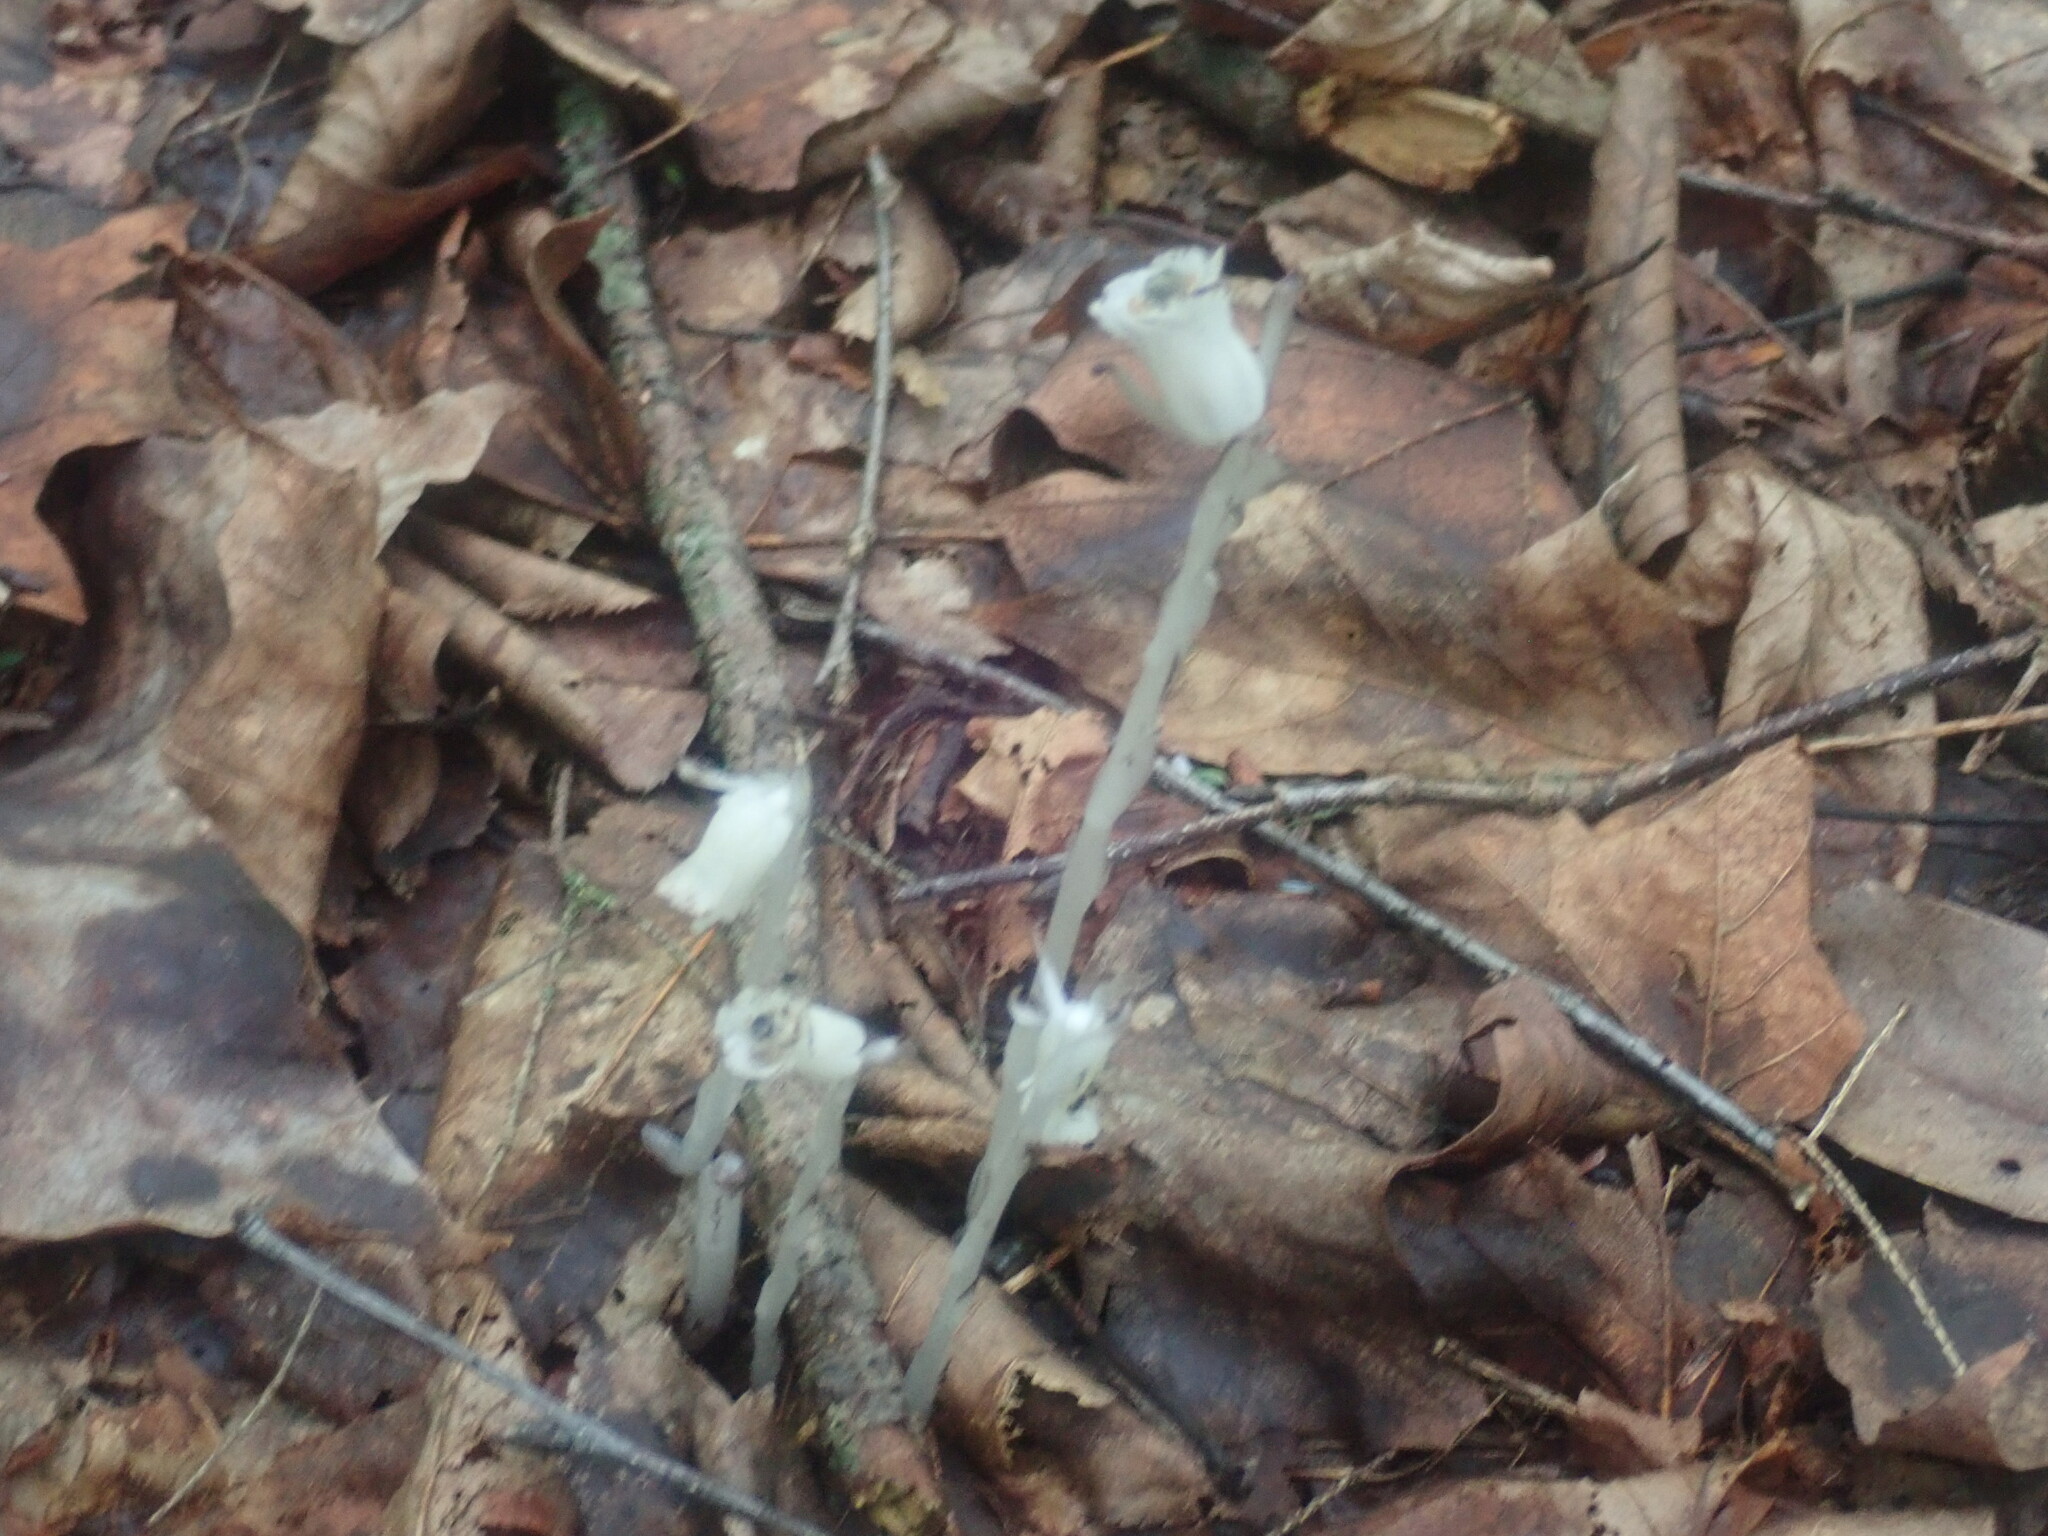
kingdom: Plantae
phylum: Tracheophyta
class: Magnoliopsida
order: Ericales
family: Ericaceae
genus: Monotropa
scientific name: Monotropa uniflora
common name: Convulsion root
